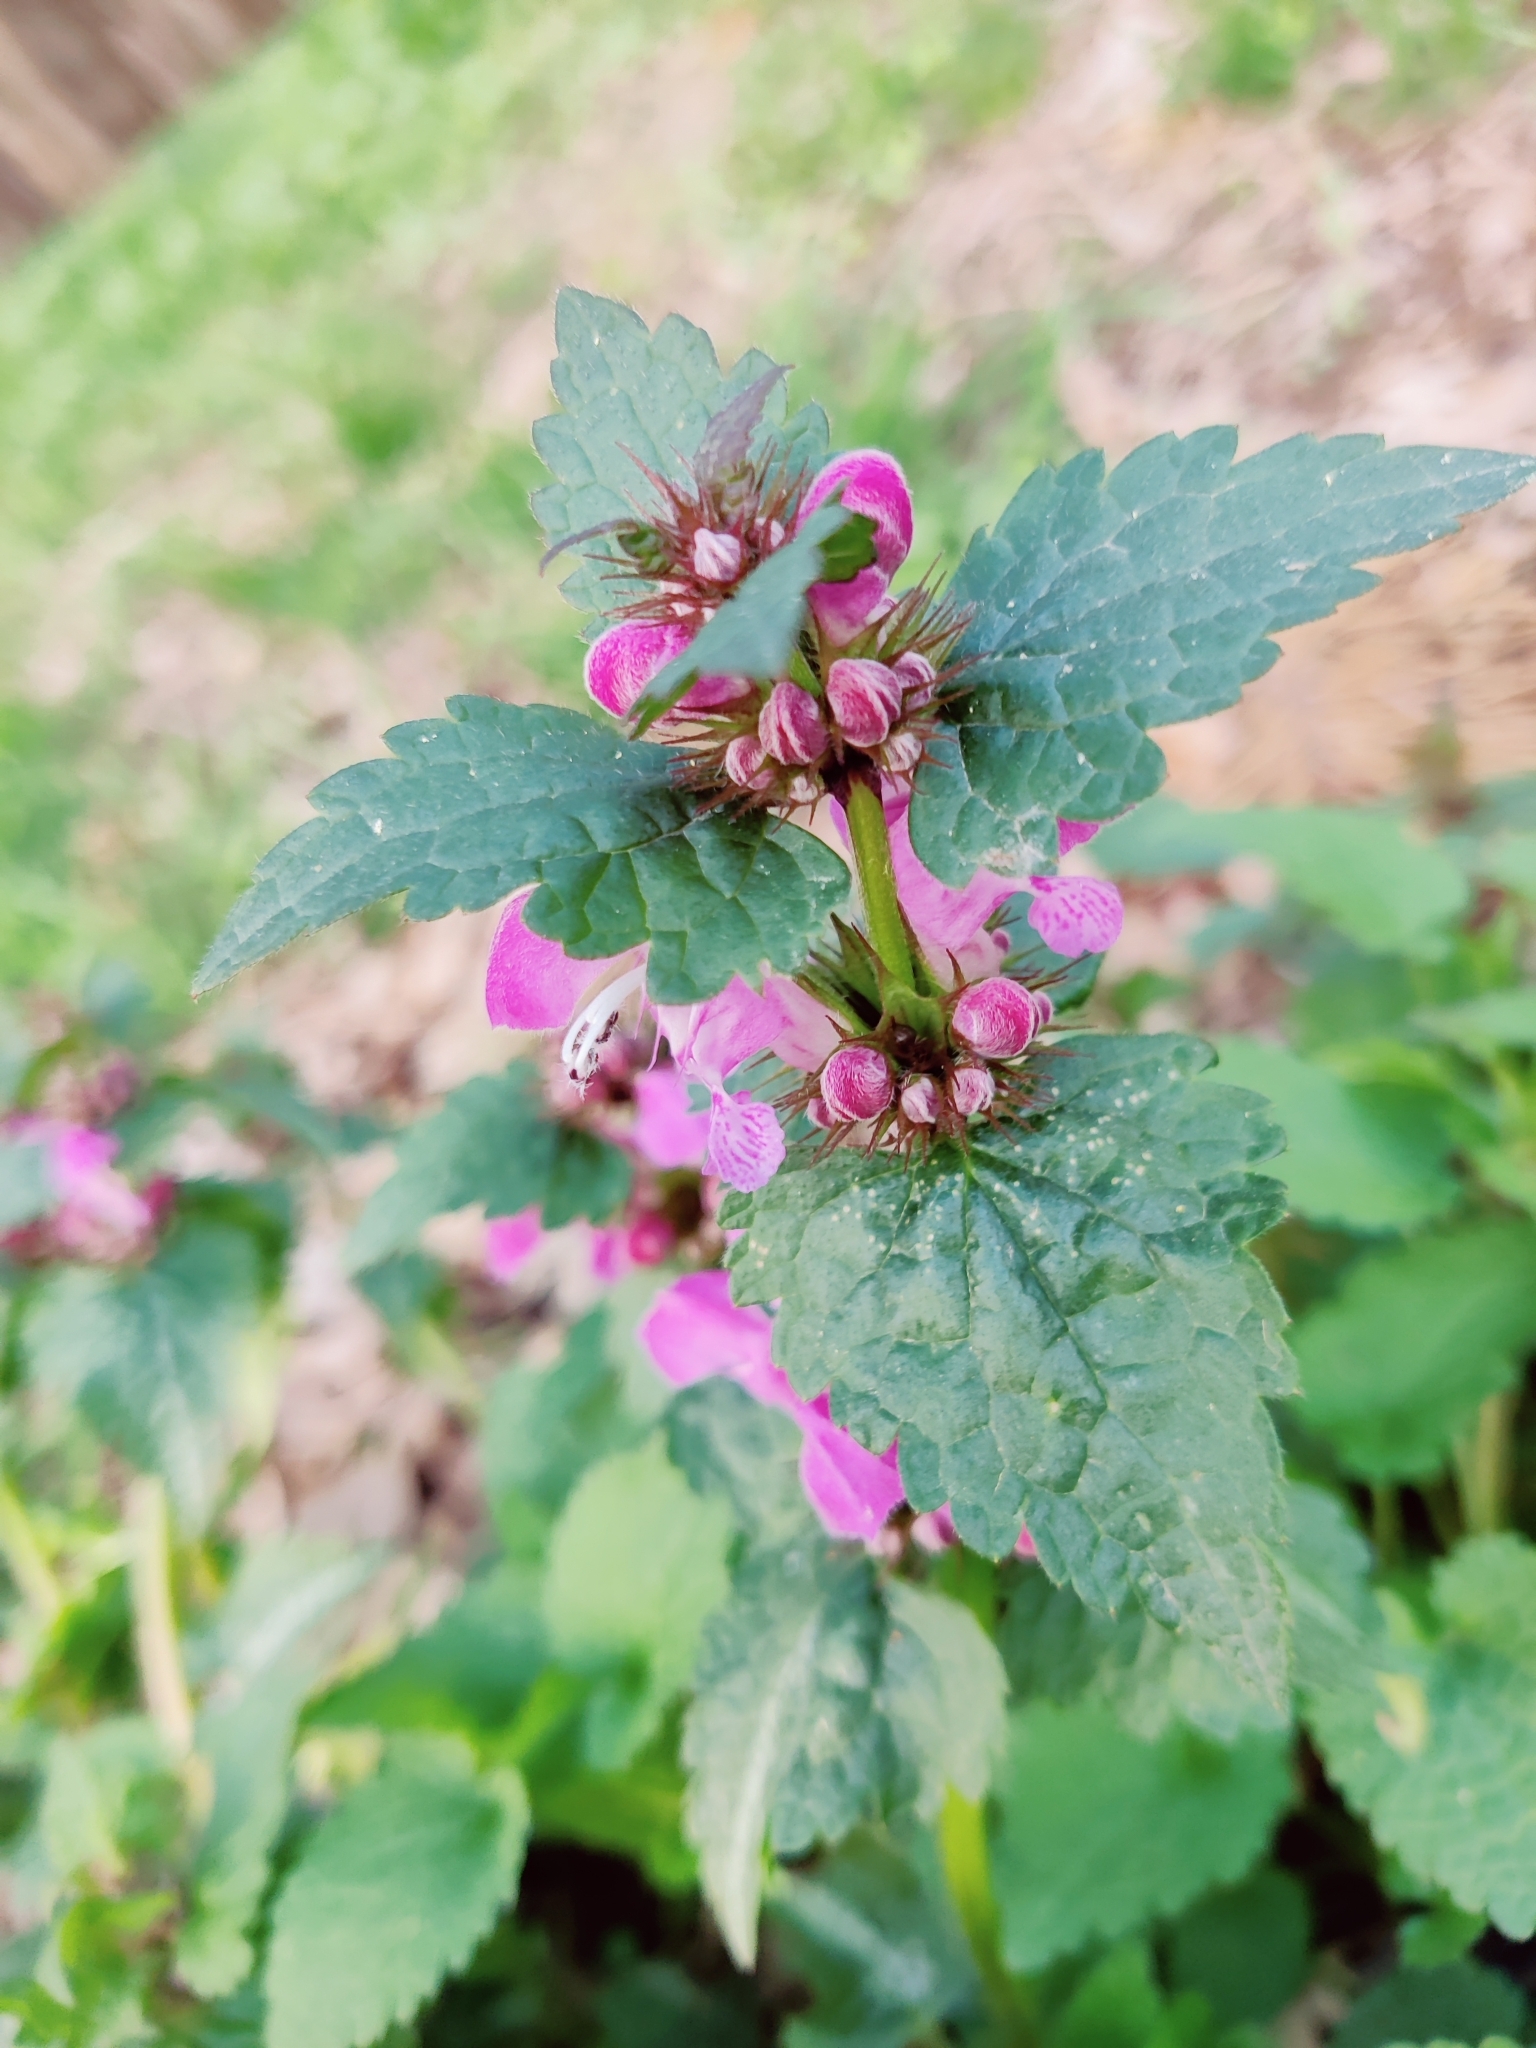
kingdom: Plantae
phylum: Tracheophyta
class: Magnoliopsida
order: Lamiales
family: Lamiaceae
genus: Lamium
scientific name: Lamium maculatum
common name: Spotted dead-nettle
